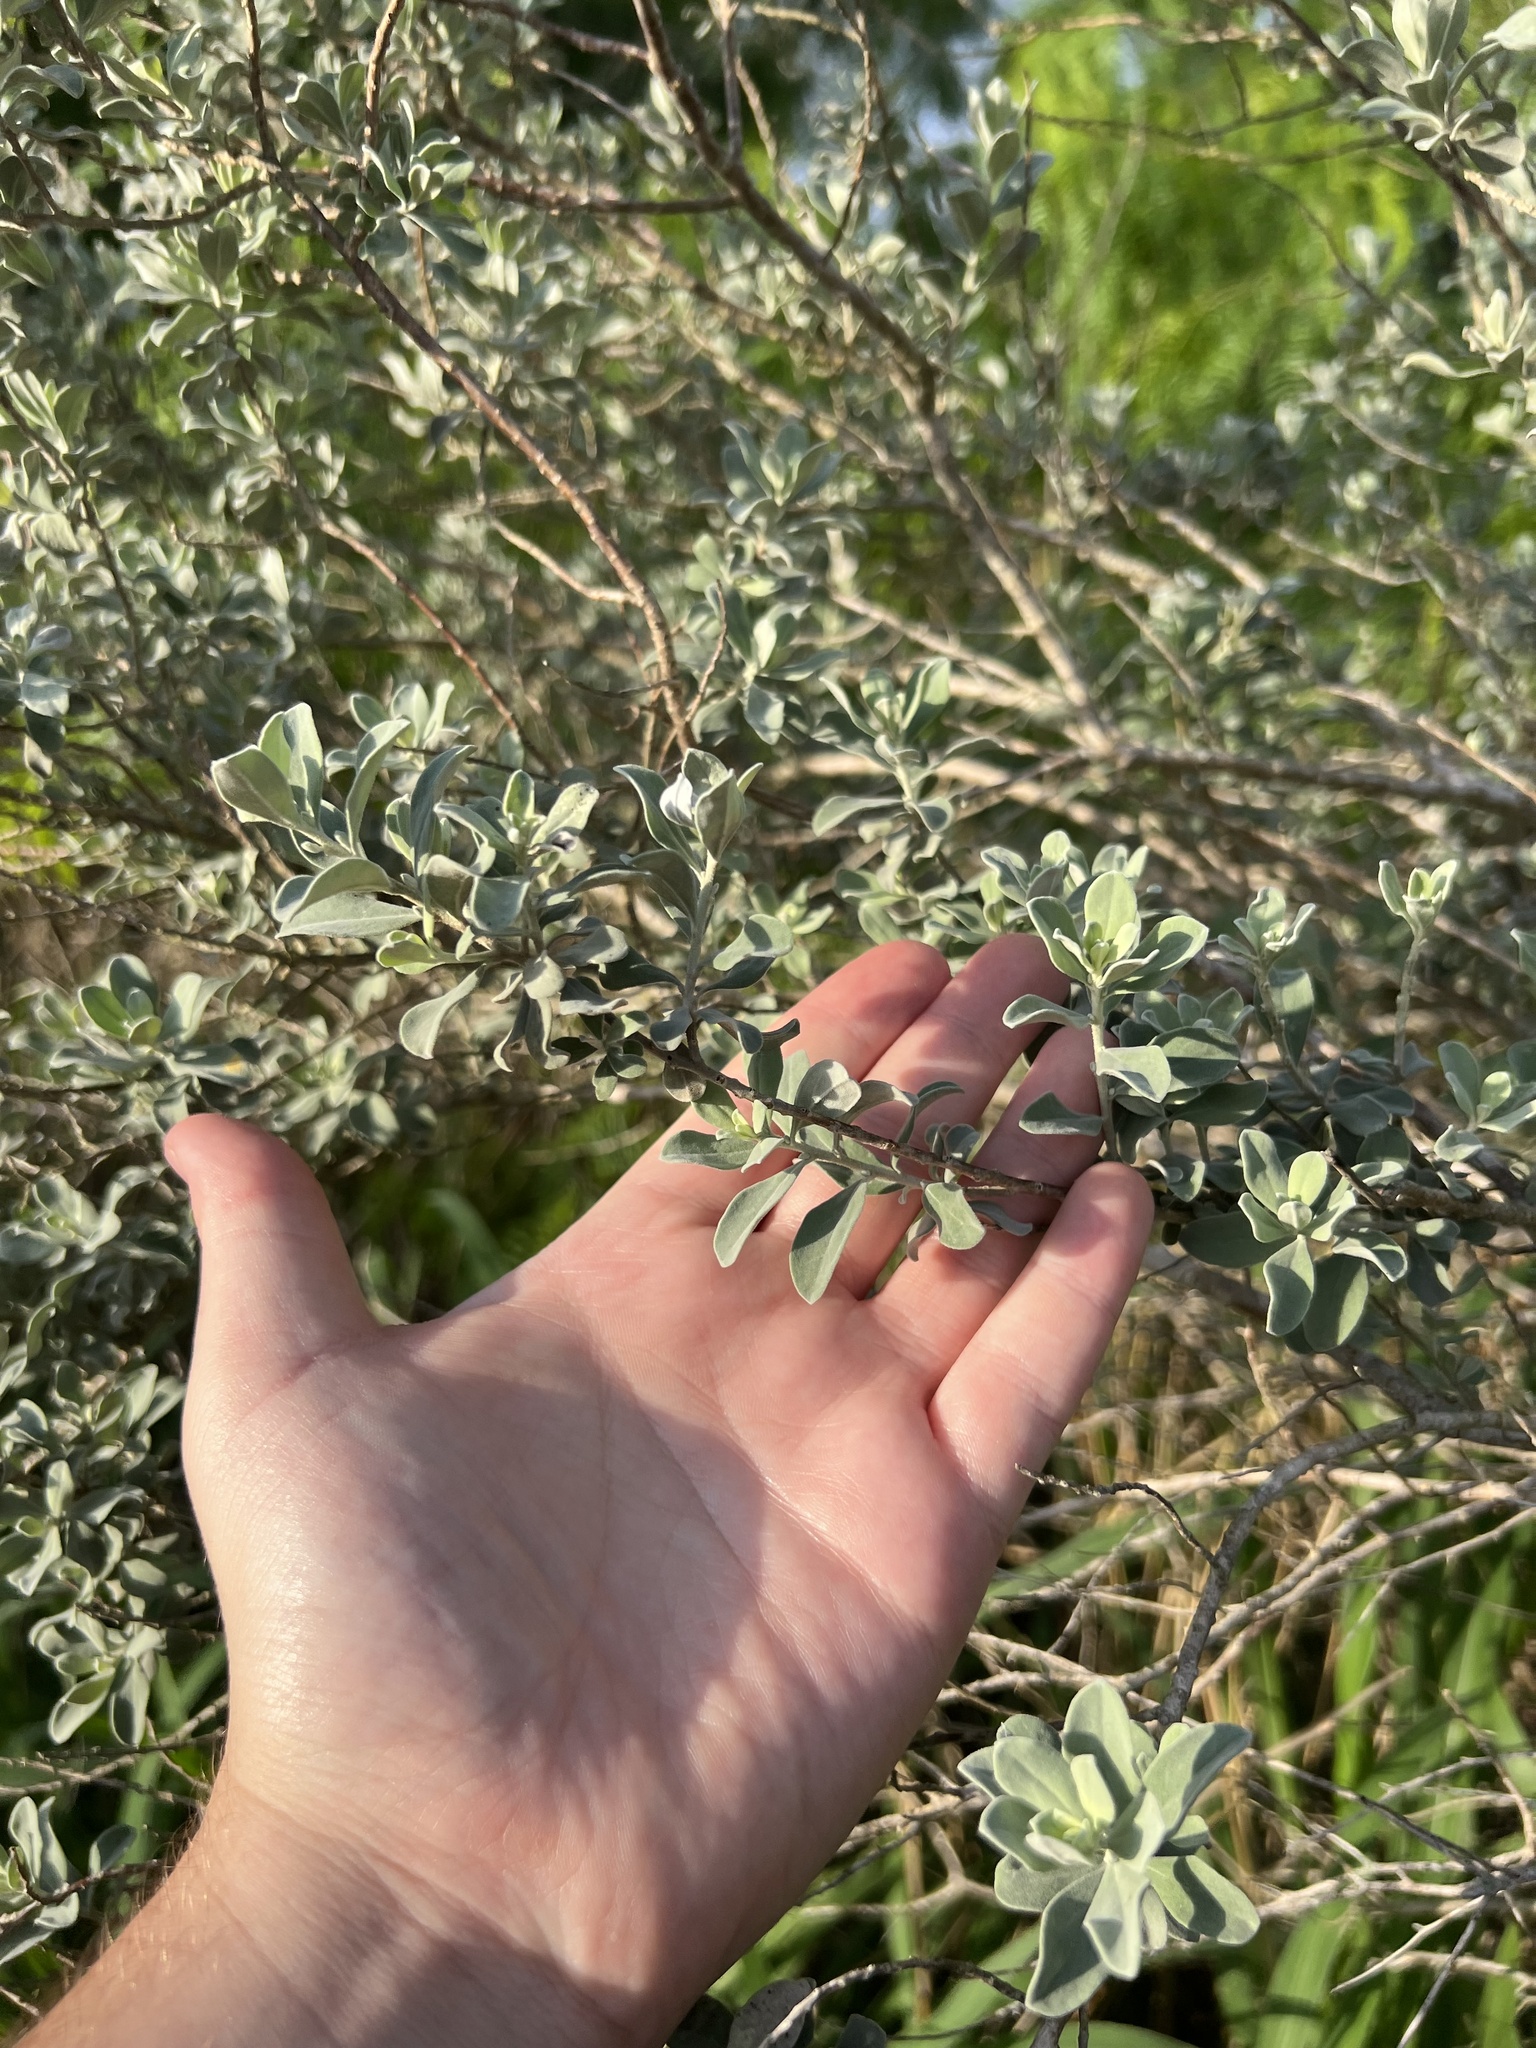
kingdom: Plantae
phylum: Tracheophyta
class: Magnoliopsida
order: Lamiales
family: Scrophulariaceae
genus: Leucophyllum
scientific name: Leucophyllum frutescens
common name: Texas silverleaf
